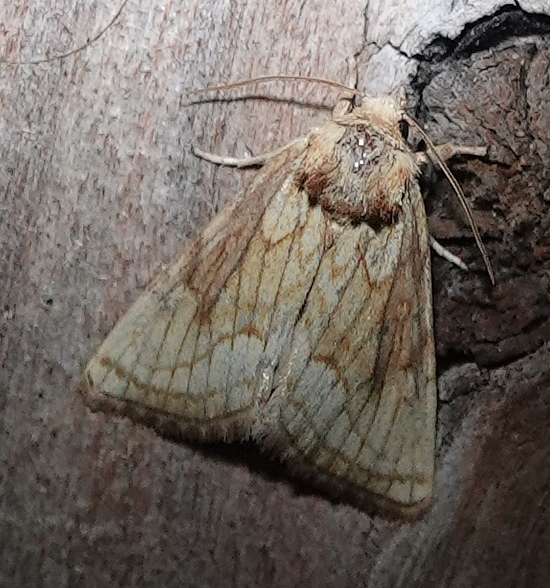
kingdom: Animalia
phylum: Arthropoda
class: Insecta
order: Lepidoptera
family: Noctuidae
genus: Nocloa
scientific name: Nocloa duplicatus
